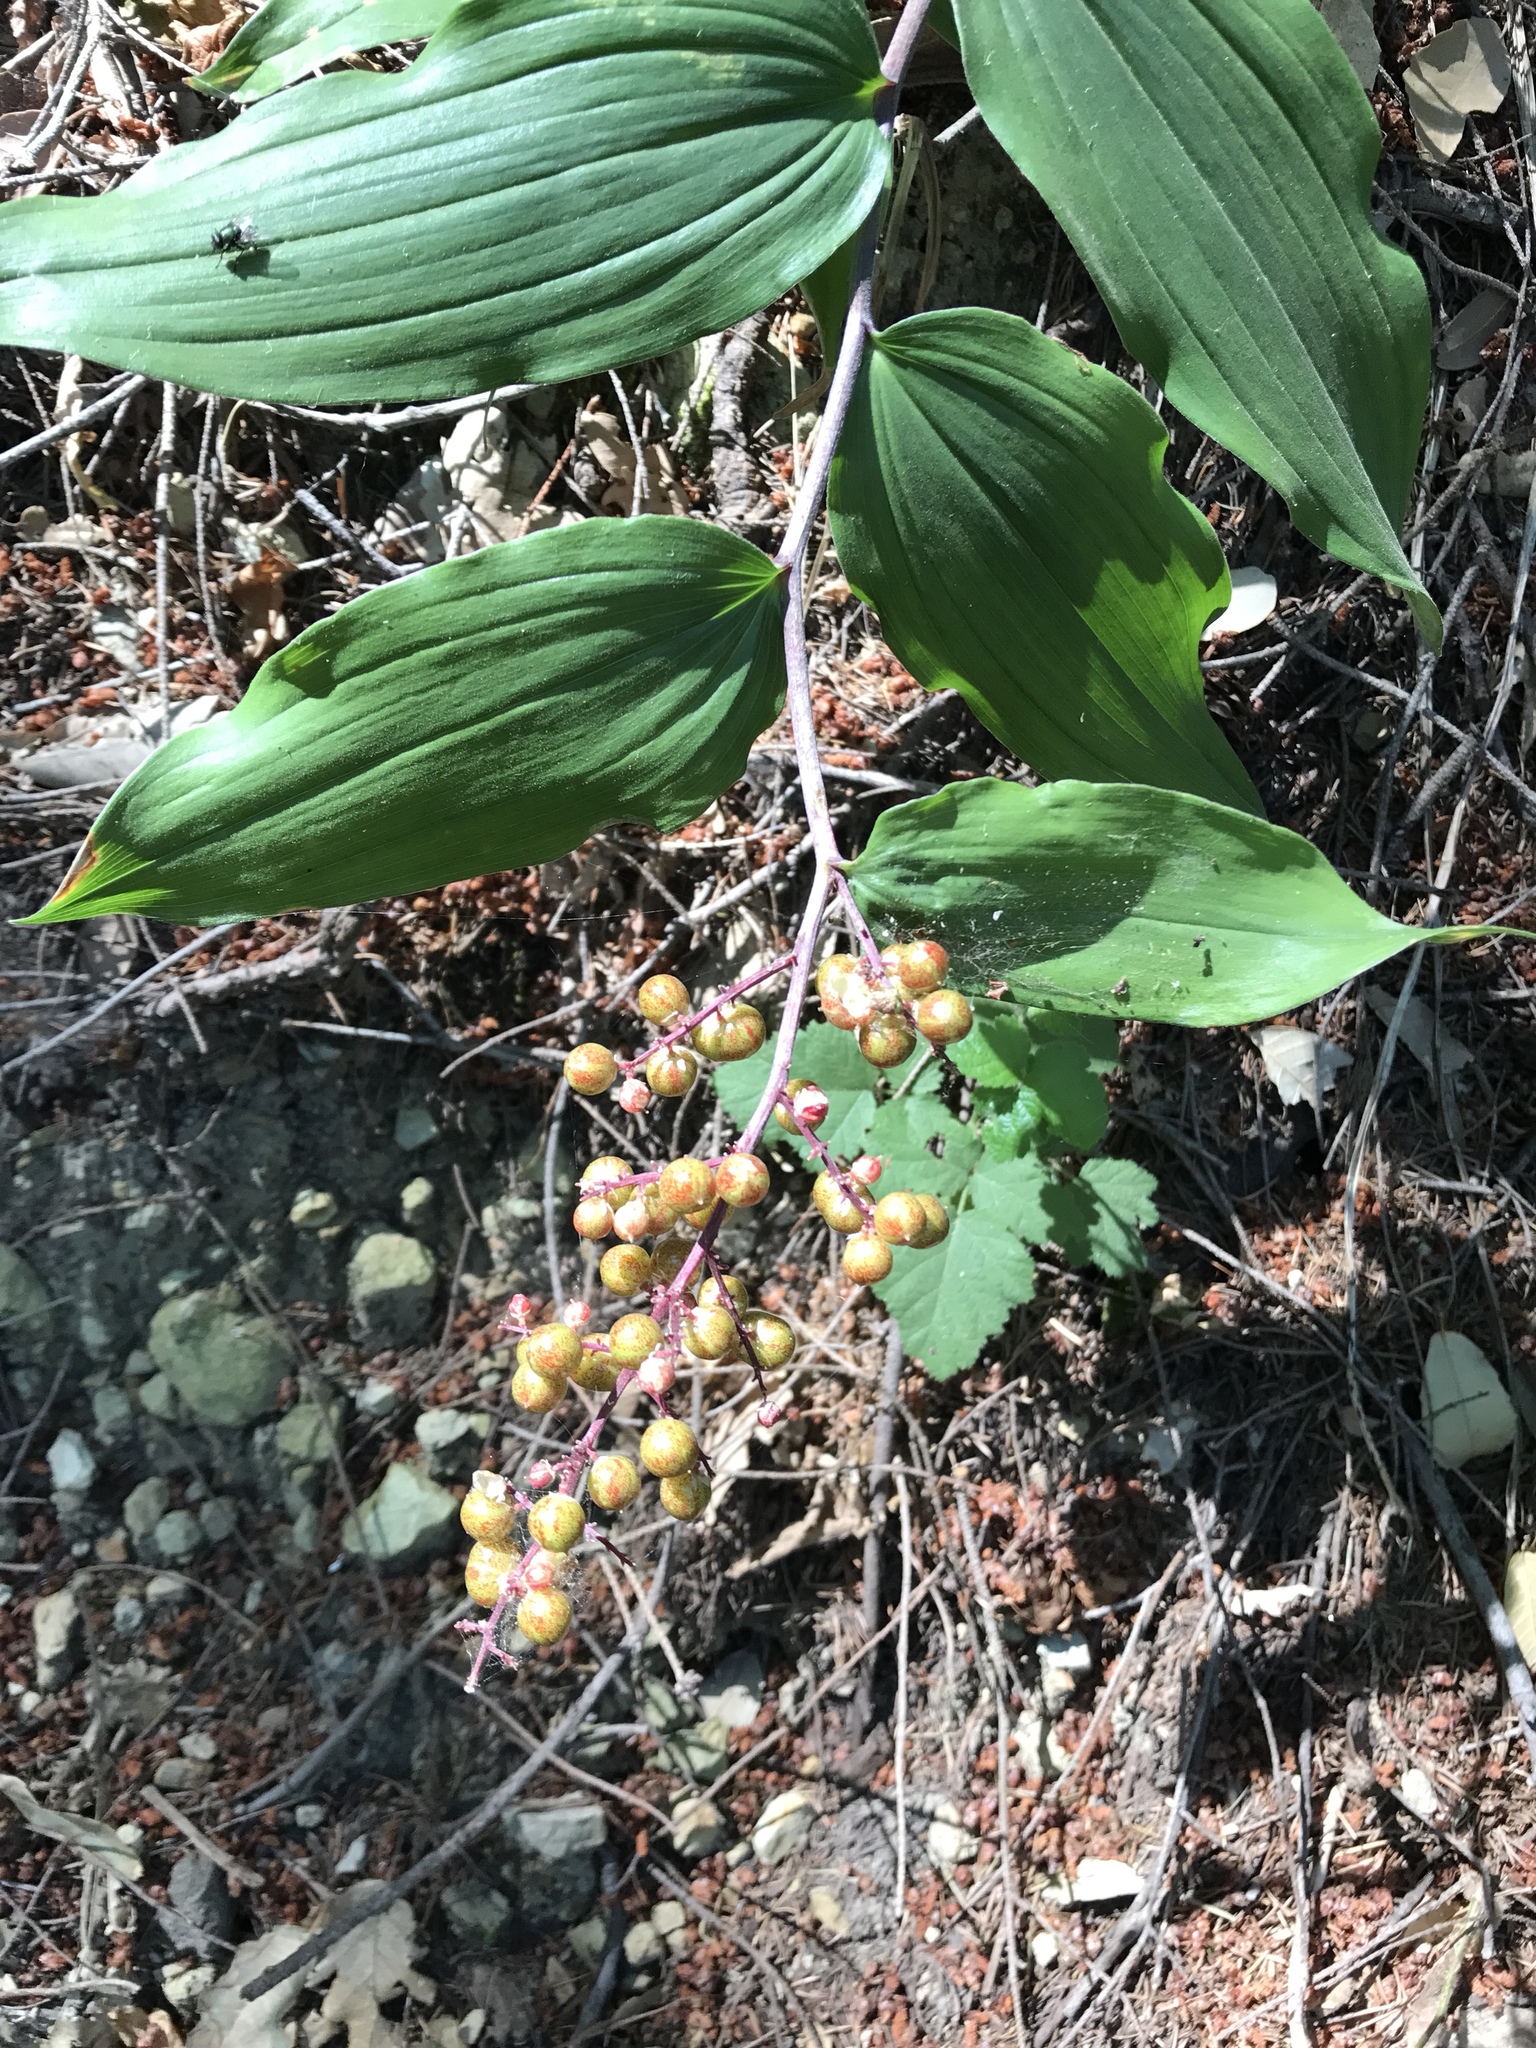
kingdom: Plantae
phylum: Tracheophyta
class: Liliopsida
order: Asparagales
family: Asparagaceae
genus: Maianthemum
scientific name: Maianthemum racemosum
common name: False spikenard
